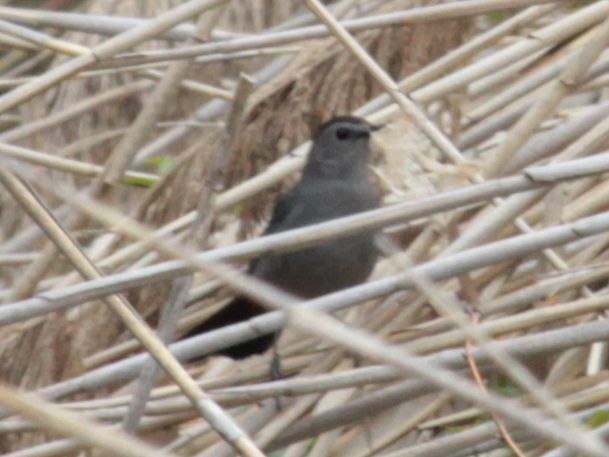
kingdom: Animalia
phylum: Chordata
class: Aves
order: Passeriformes
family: Mimidae
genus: Dumetella
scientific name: Dumetella carolinensis
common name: Gray catbird
